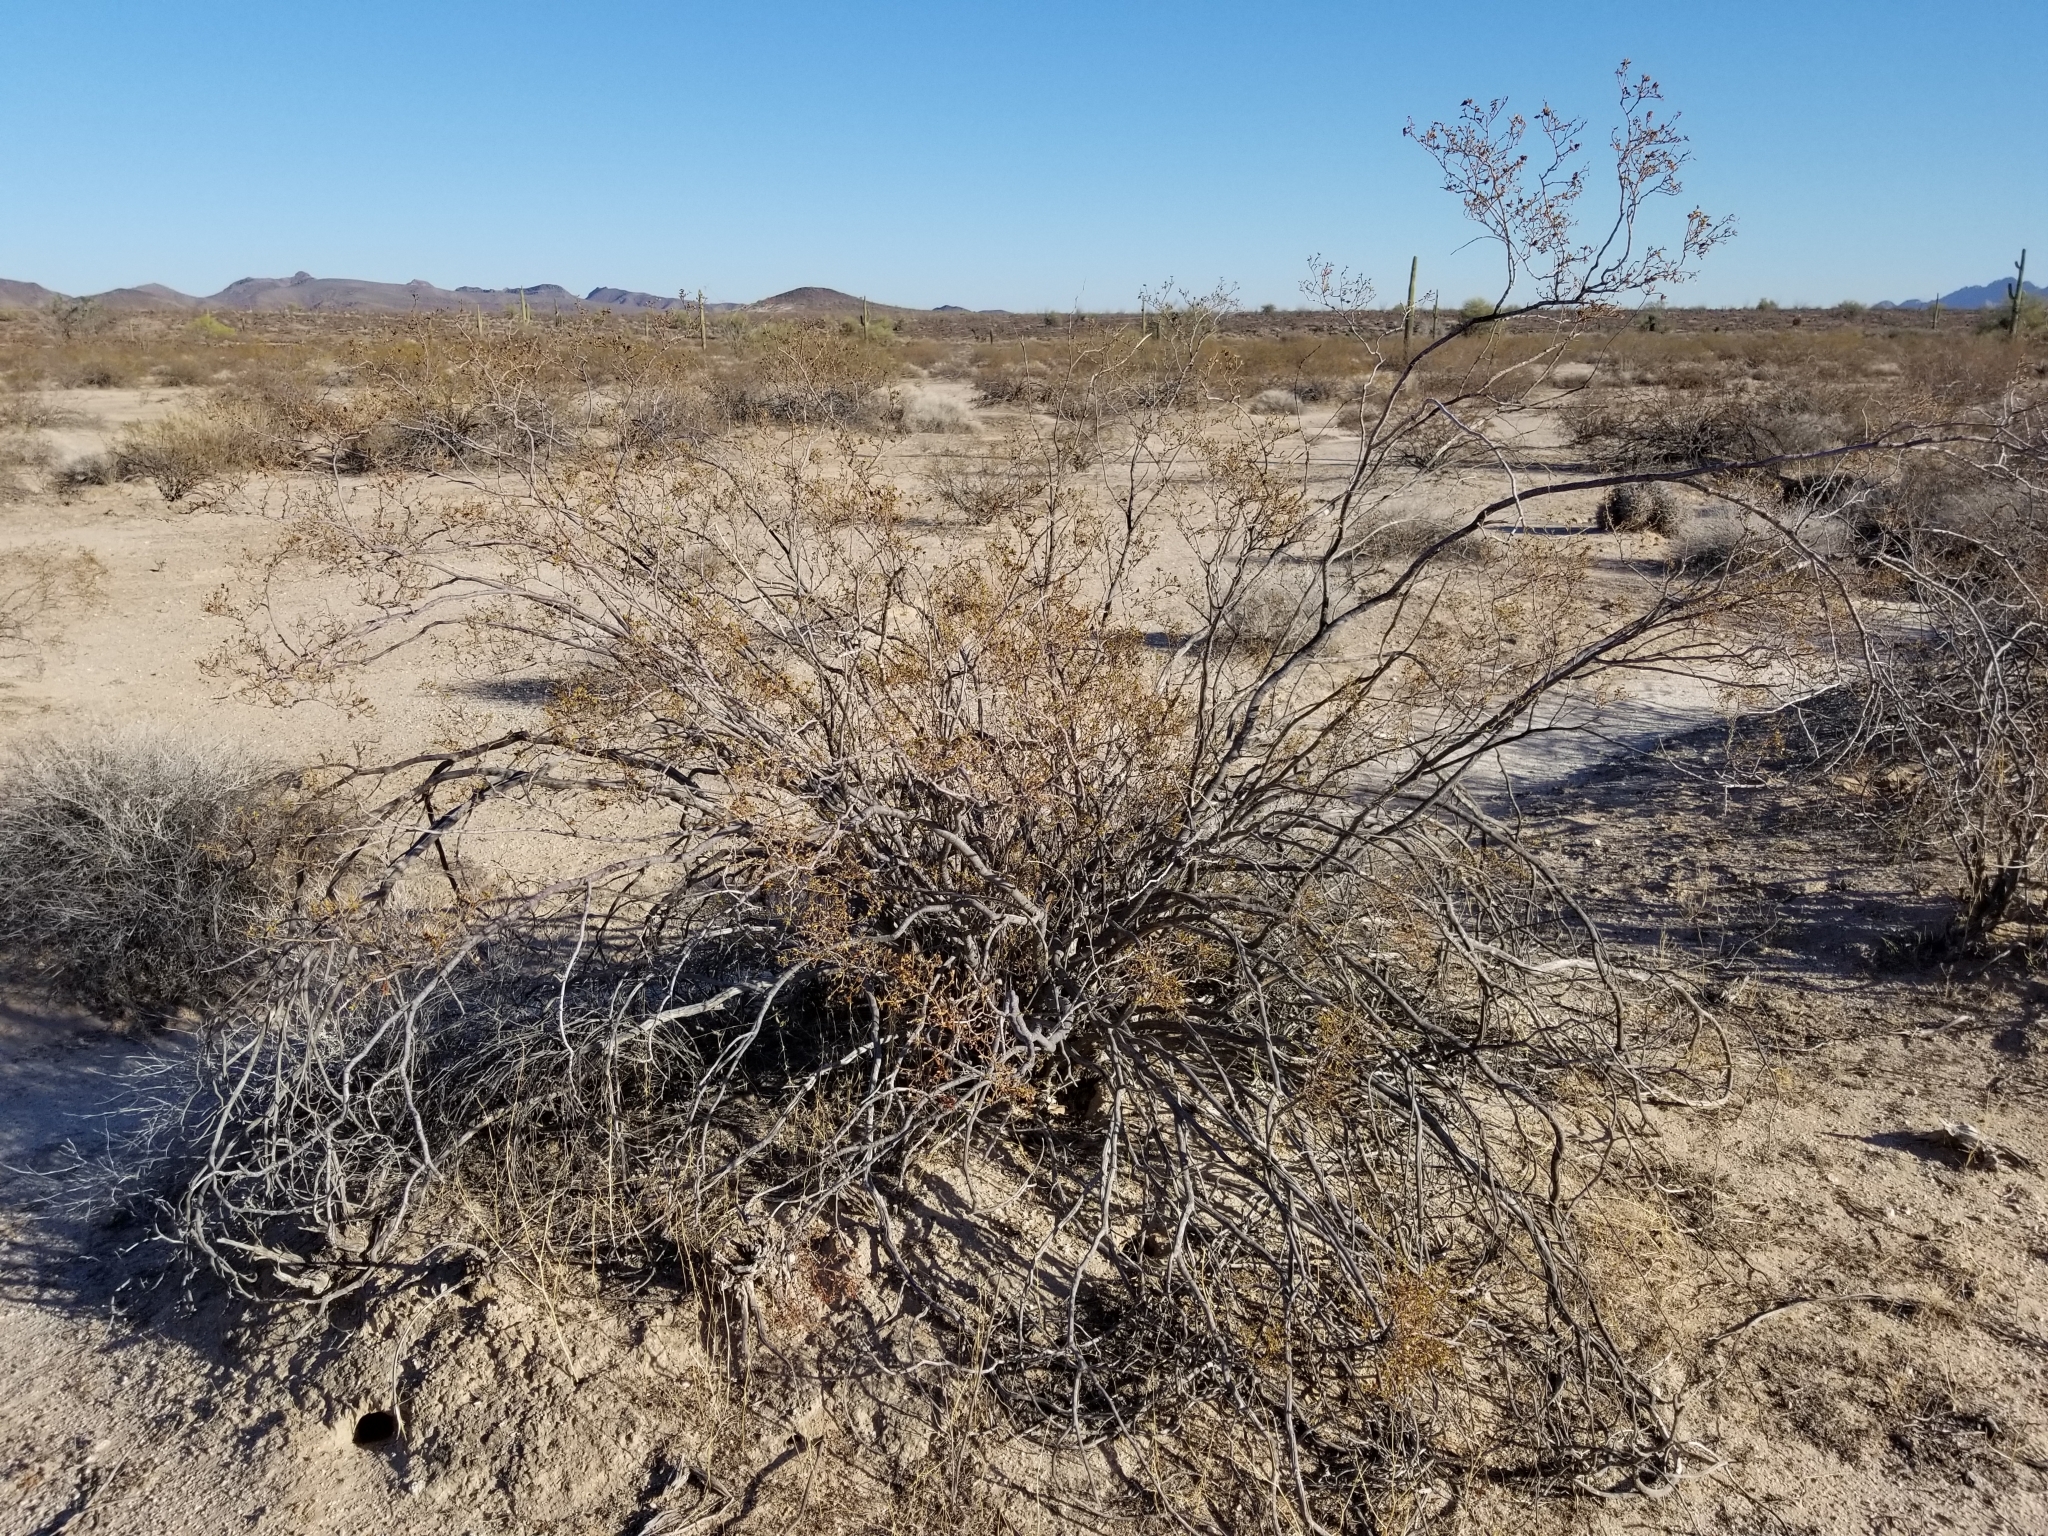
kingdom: Plantae
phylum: Tracheophyta
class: Magnoliopsida
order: Zygophyllales
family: Zygophyllaceae
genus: Larrea
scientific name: Larrea tridentata
